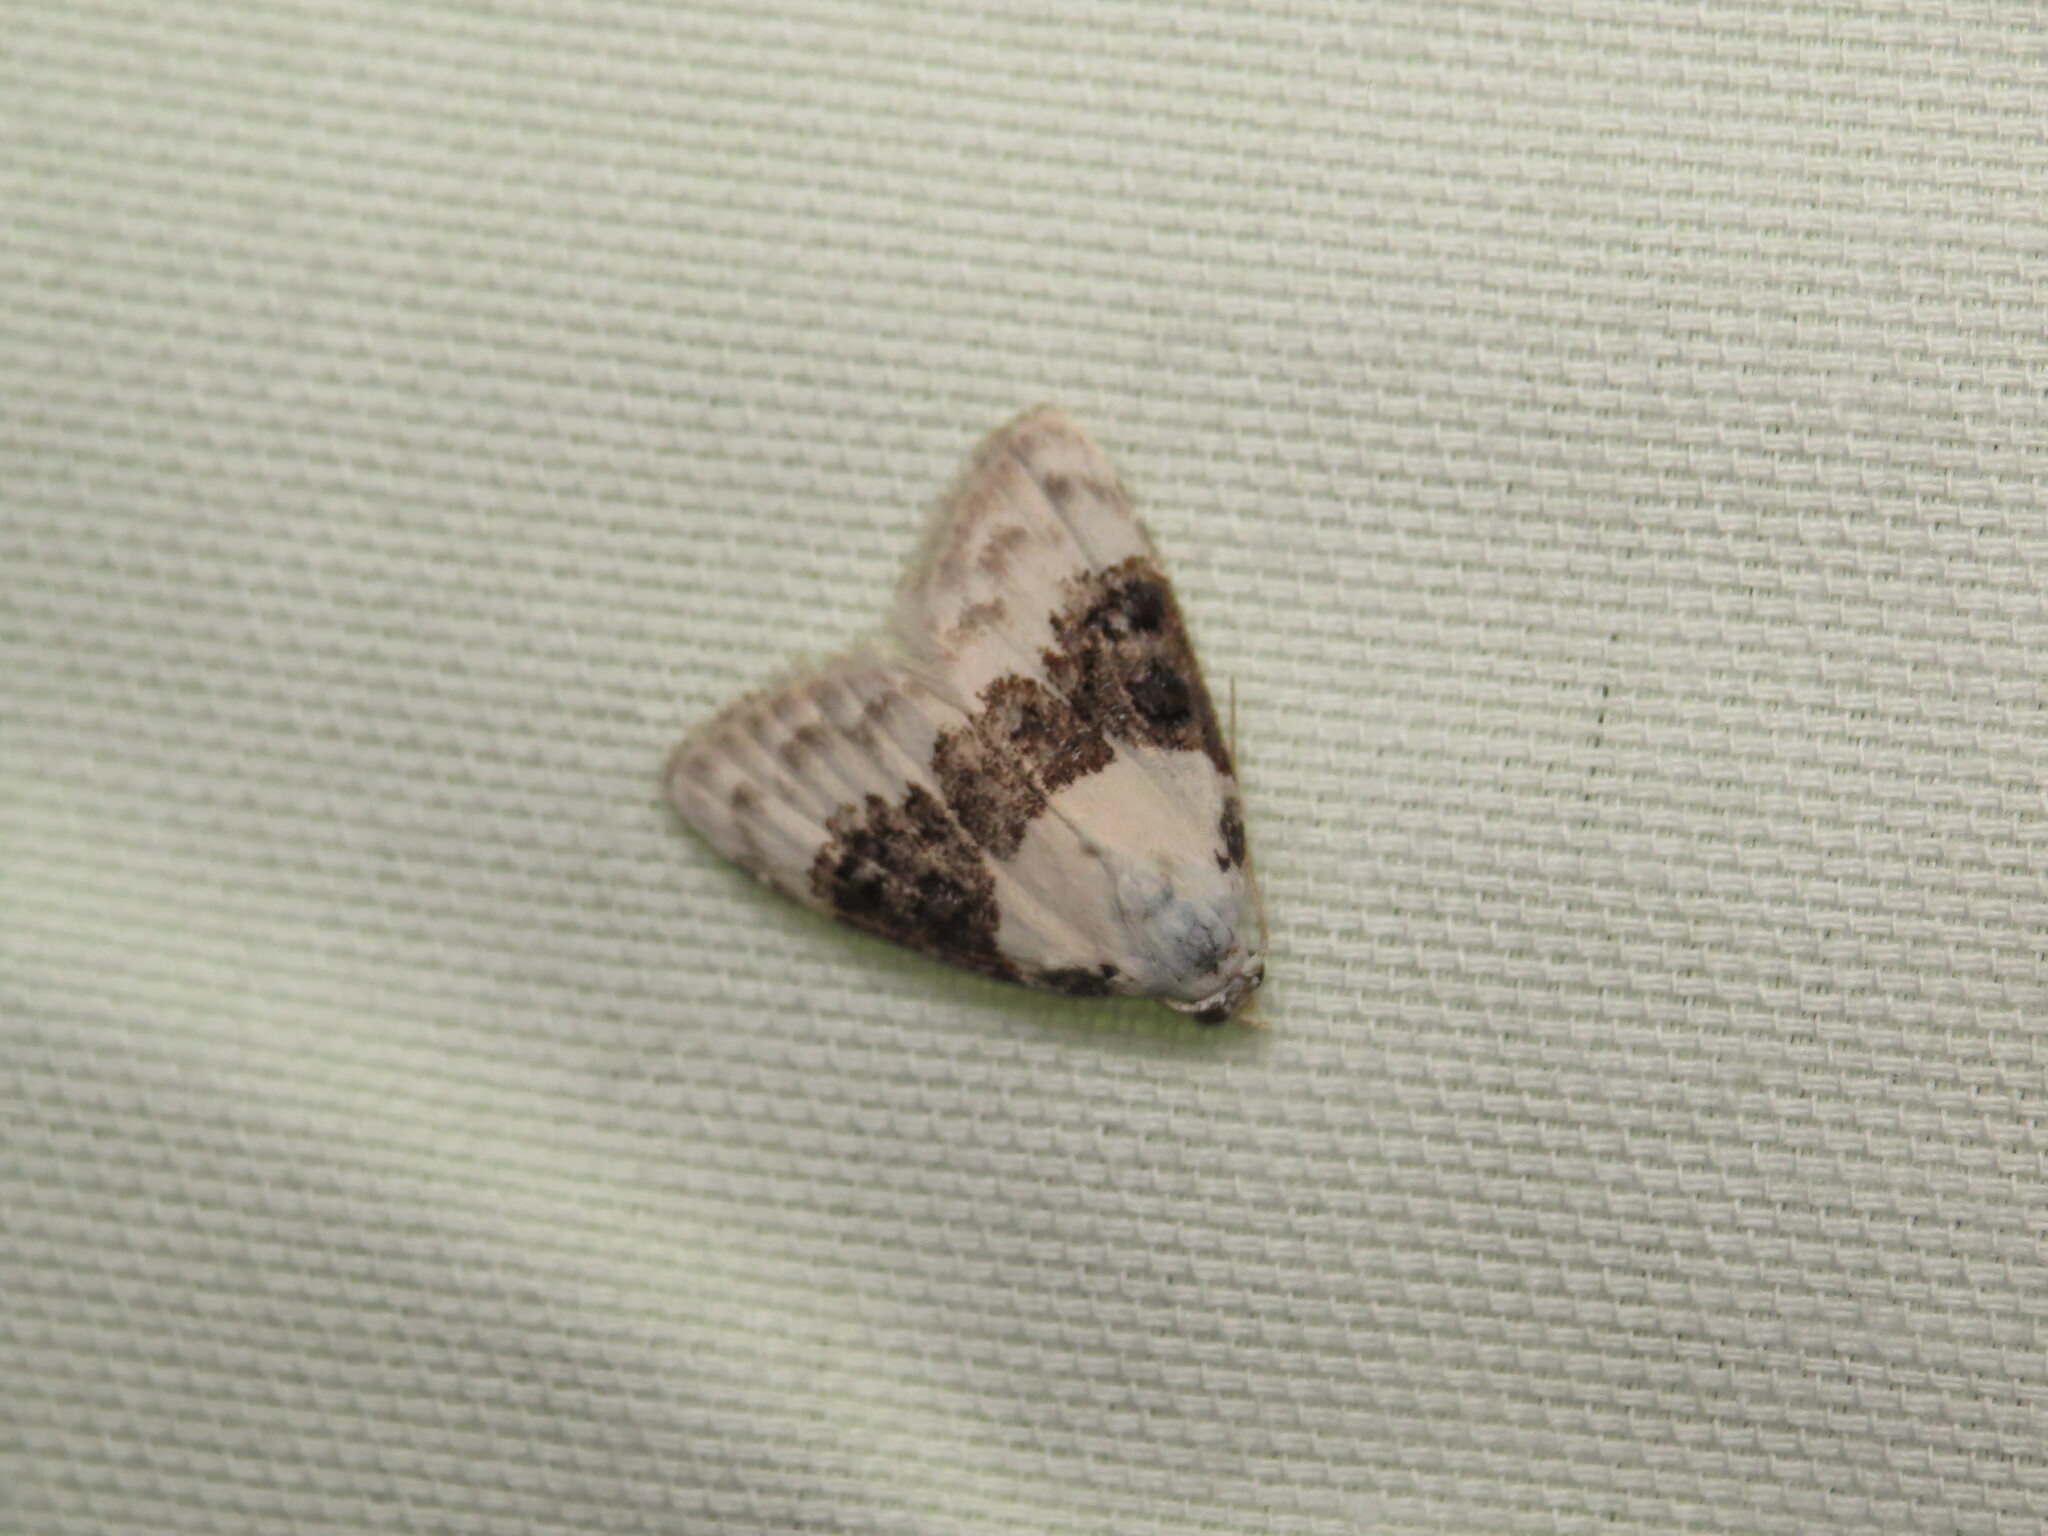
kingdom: Animalia
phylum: Arthropoda
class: Insecta
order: Lepidoptera
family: Nolidae
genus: Nola
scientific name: Nola pustulata
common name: Sharp-blotched nola moth
